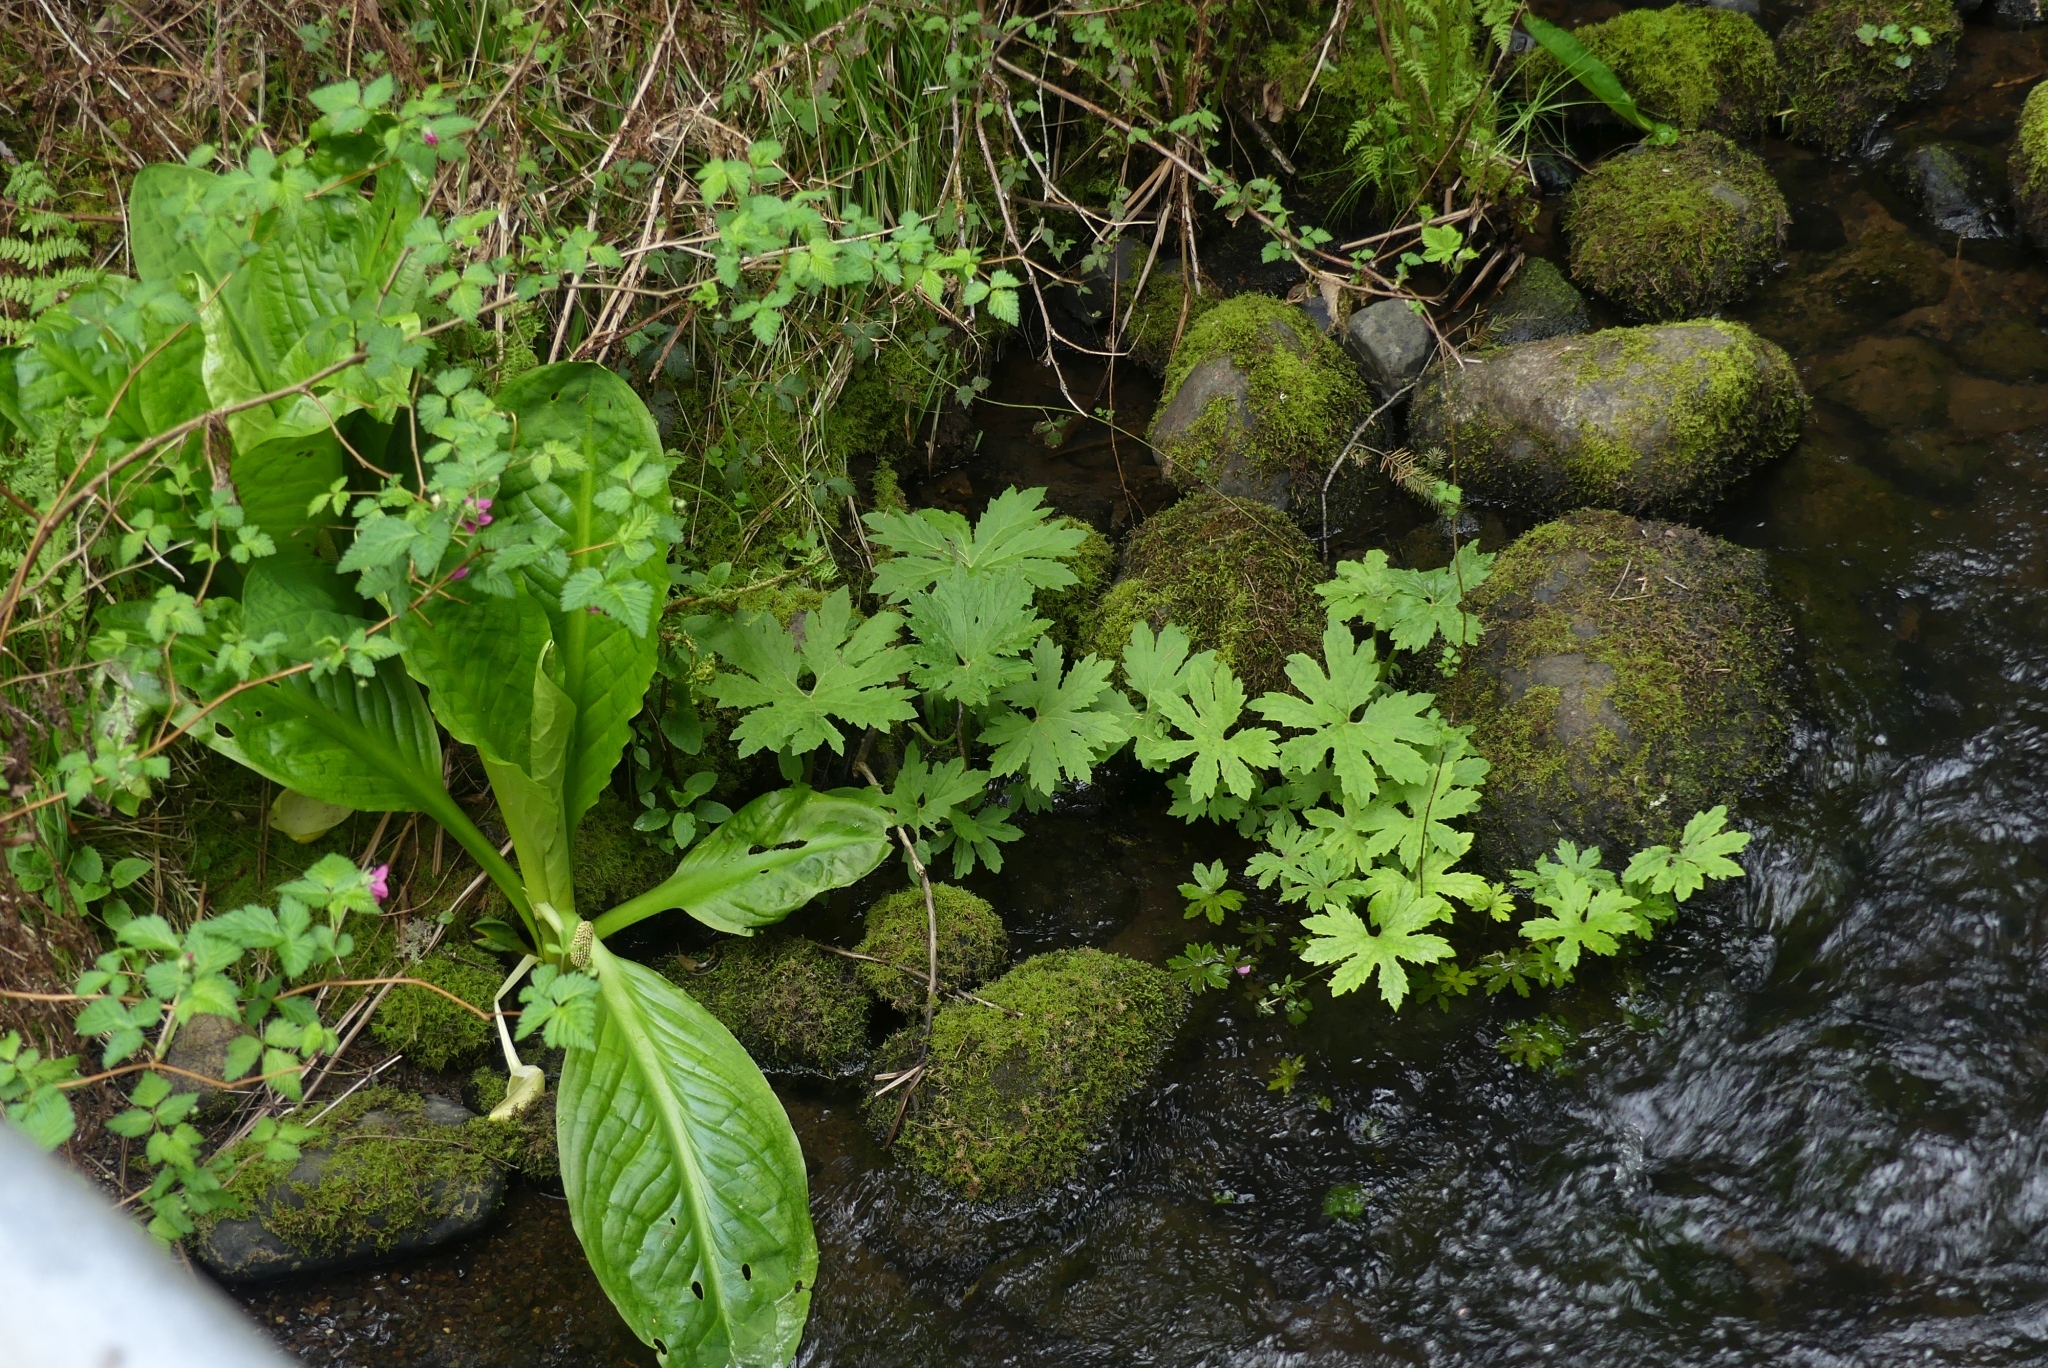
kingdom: Plantae
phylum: Tracheophyta
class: Magnoliopsida
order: Asterales
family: Asteraceae
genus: Petasites
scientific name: Petasites frigidus
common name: Arctic butterbur
